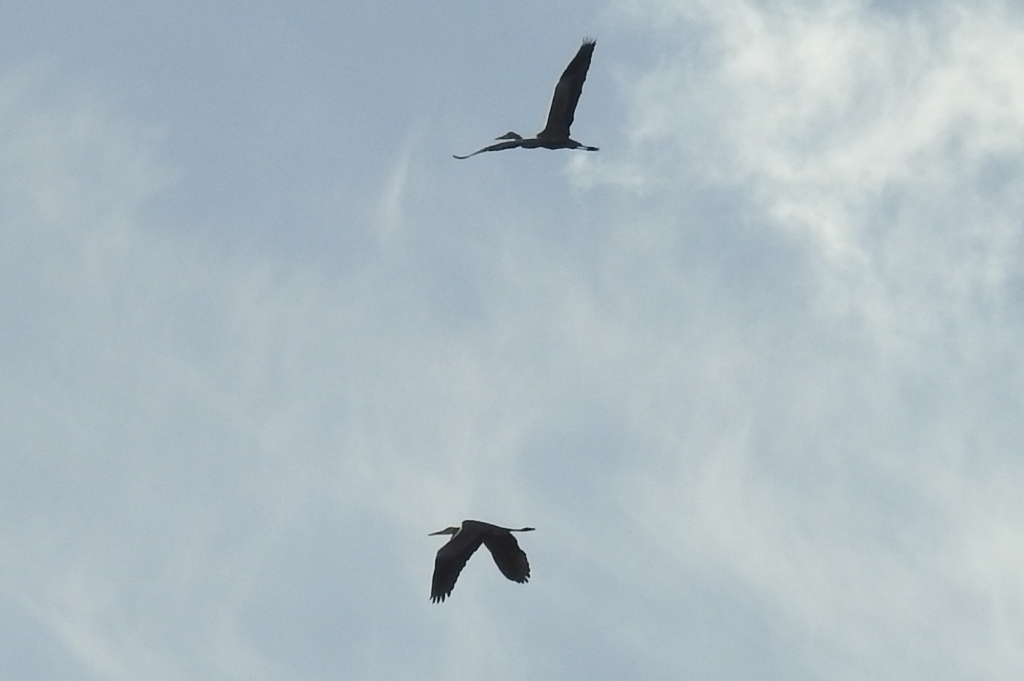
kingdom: Animalia
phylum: Chordata
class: Aves
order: Pelecaniformes
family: Ardeidae
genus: Ardea
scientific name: Ardea cinerea
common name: Grey heron
